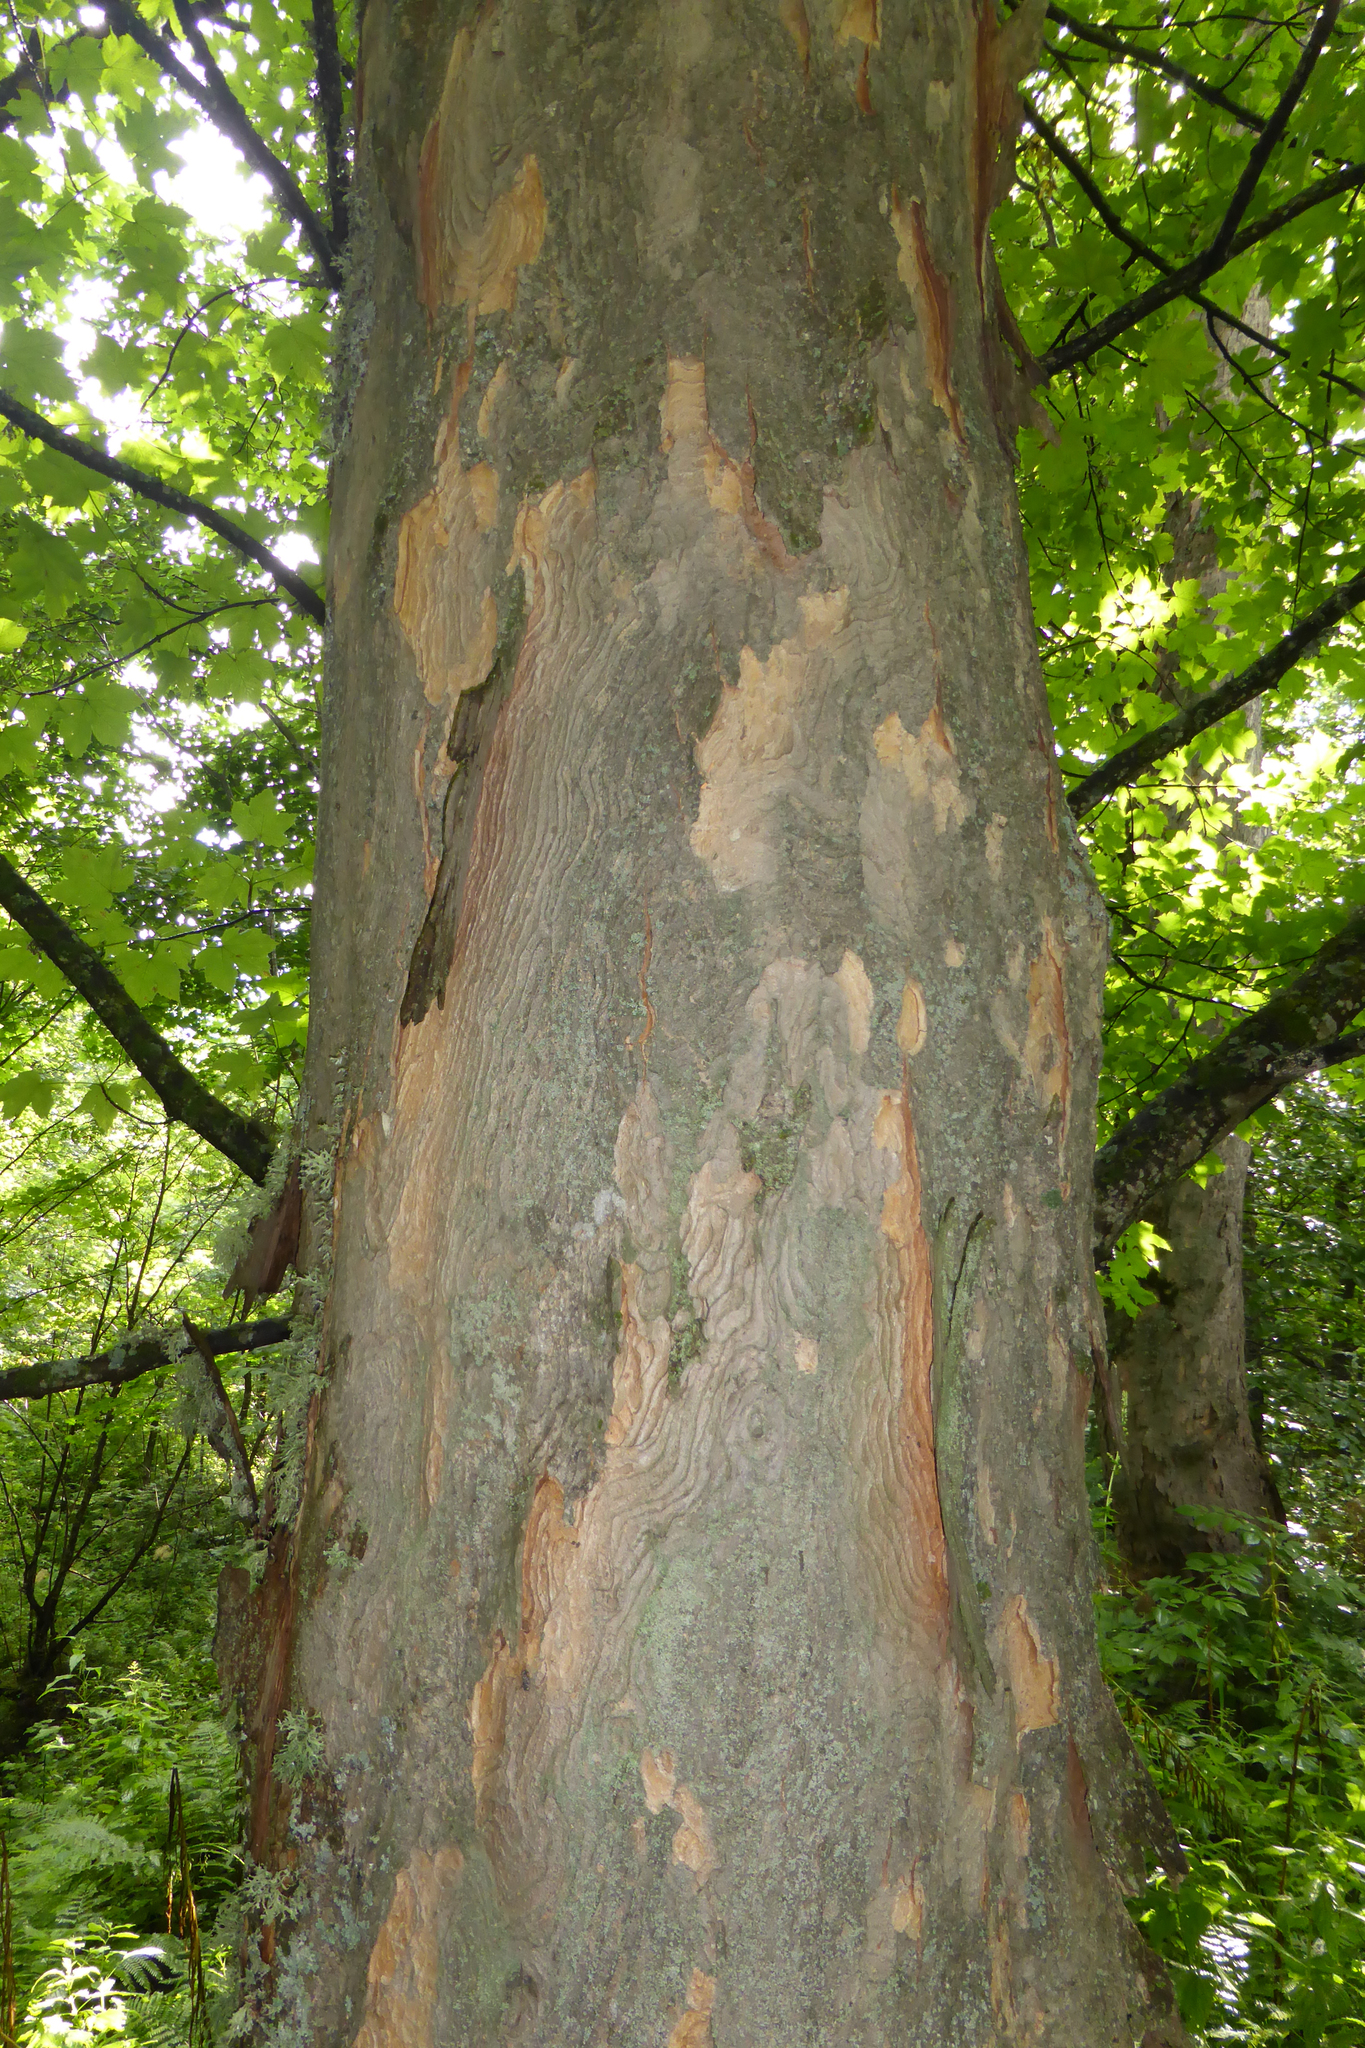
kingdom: Plantae
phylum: Tracheophyta
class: Magnoliopsida
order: Sapindales
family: Sapindaceae
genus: Acer
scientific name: Acer pseudoplatanus
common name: Sycamore
